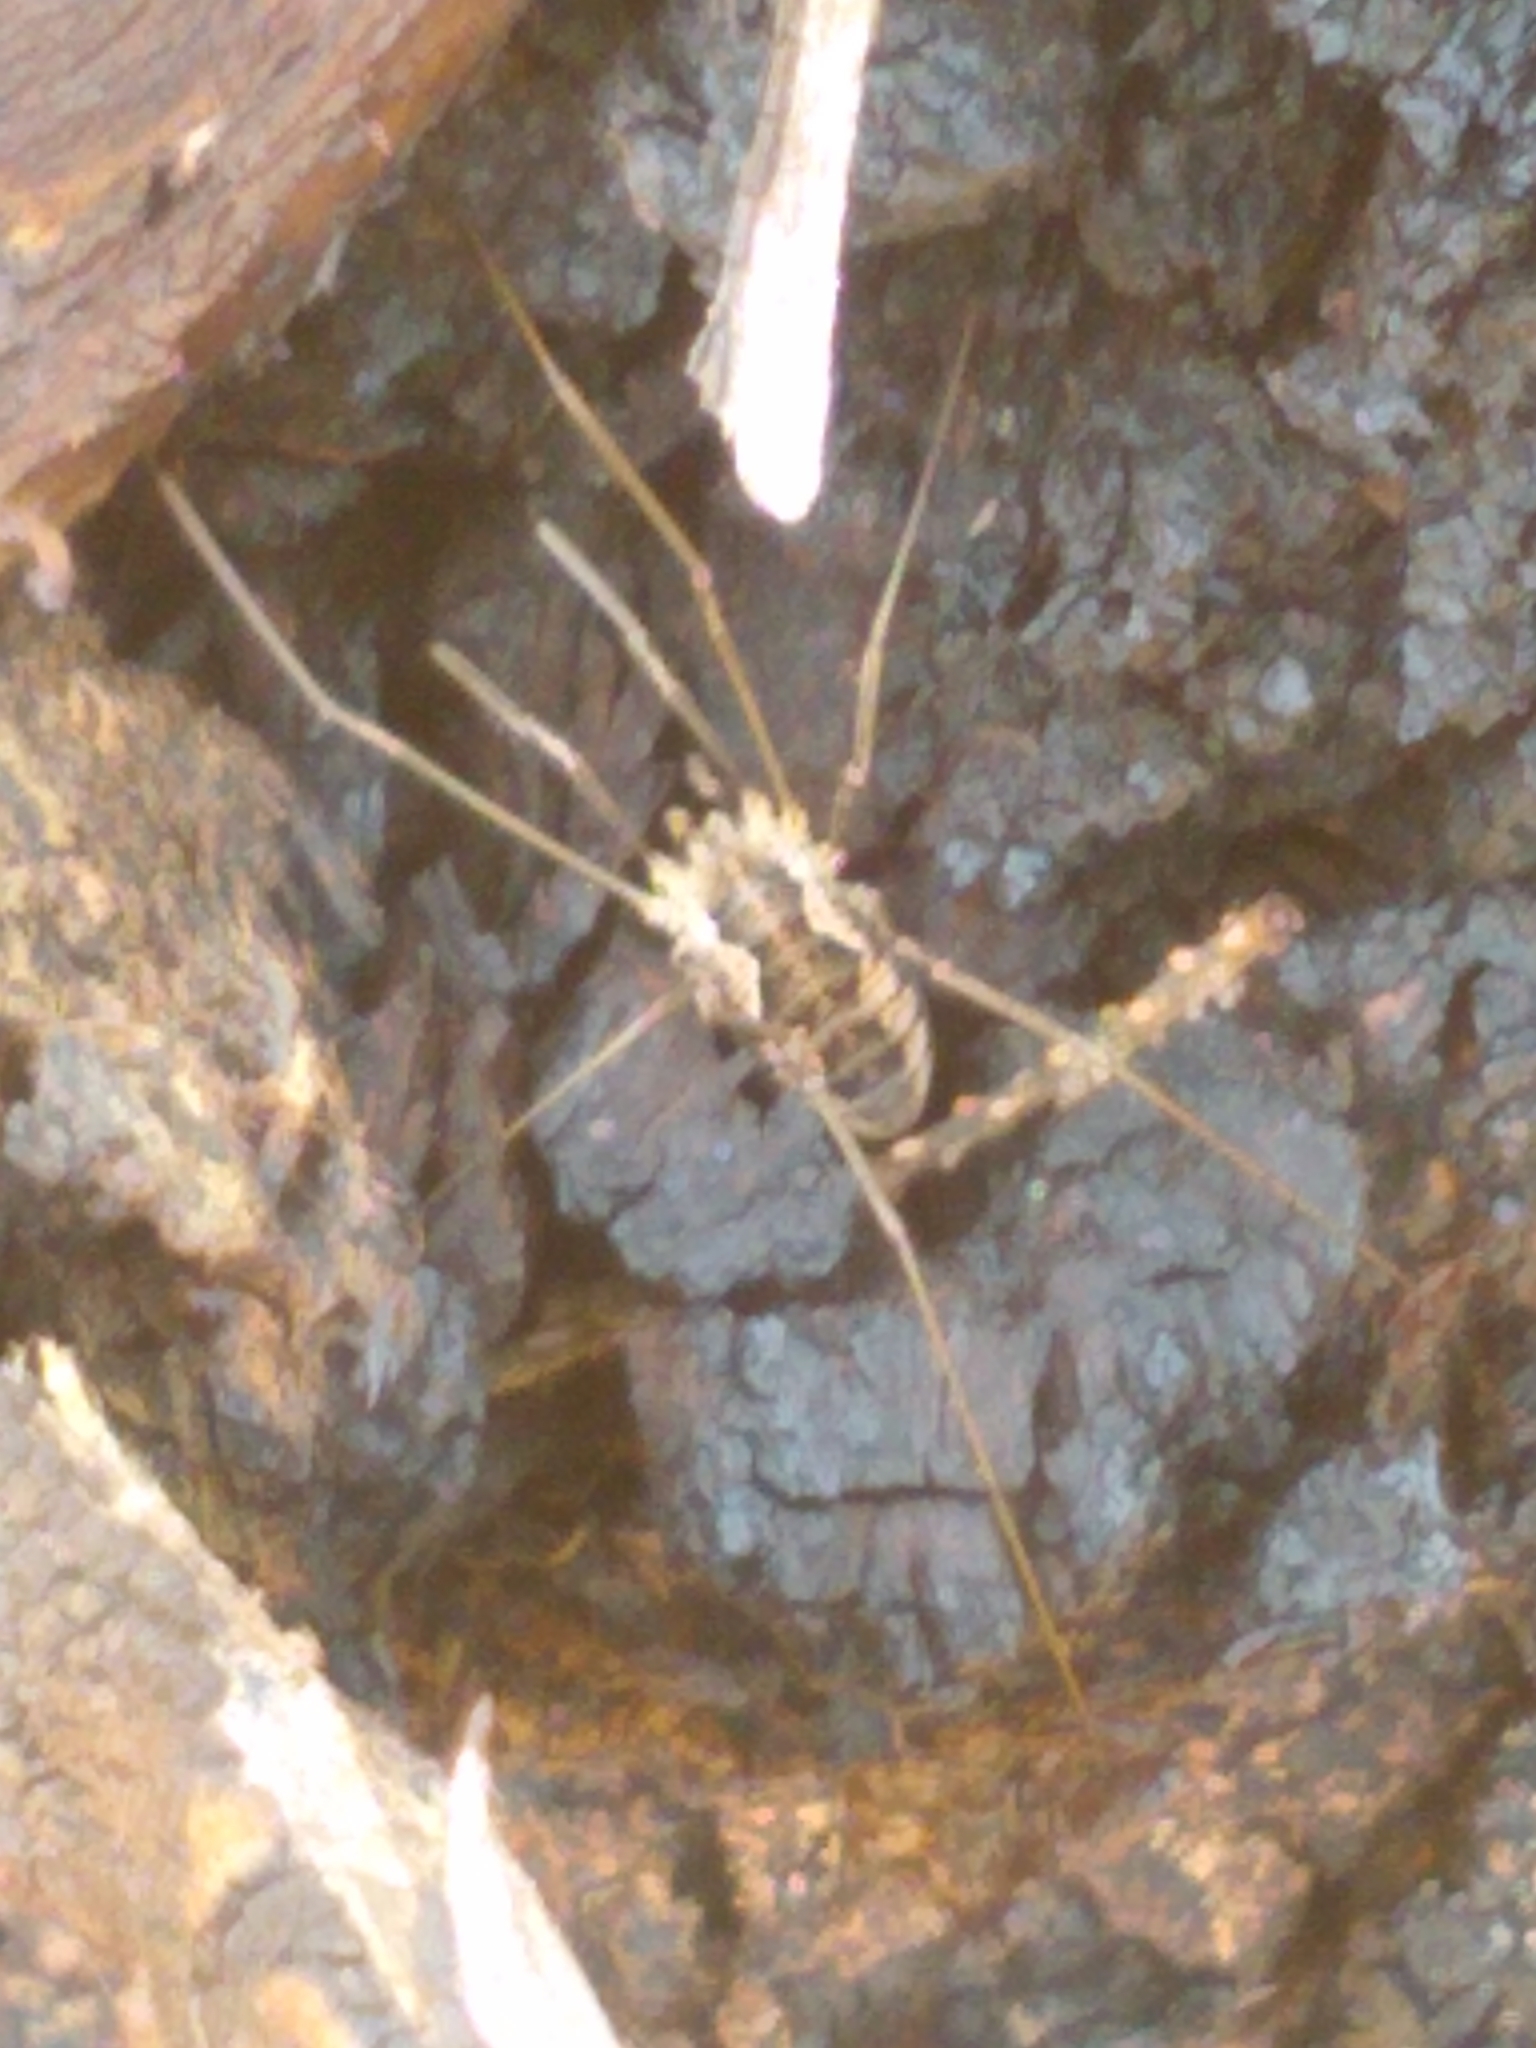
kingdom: Animalia
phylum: Arthropoda
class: Arachnida
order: Opiliones
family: Phalangiidae
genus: Phalangium
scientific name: Phalangium opilio
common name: Daddy longleg
